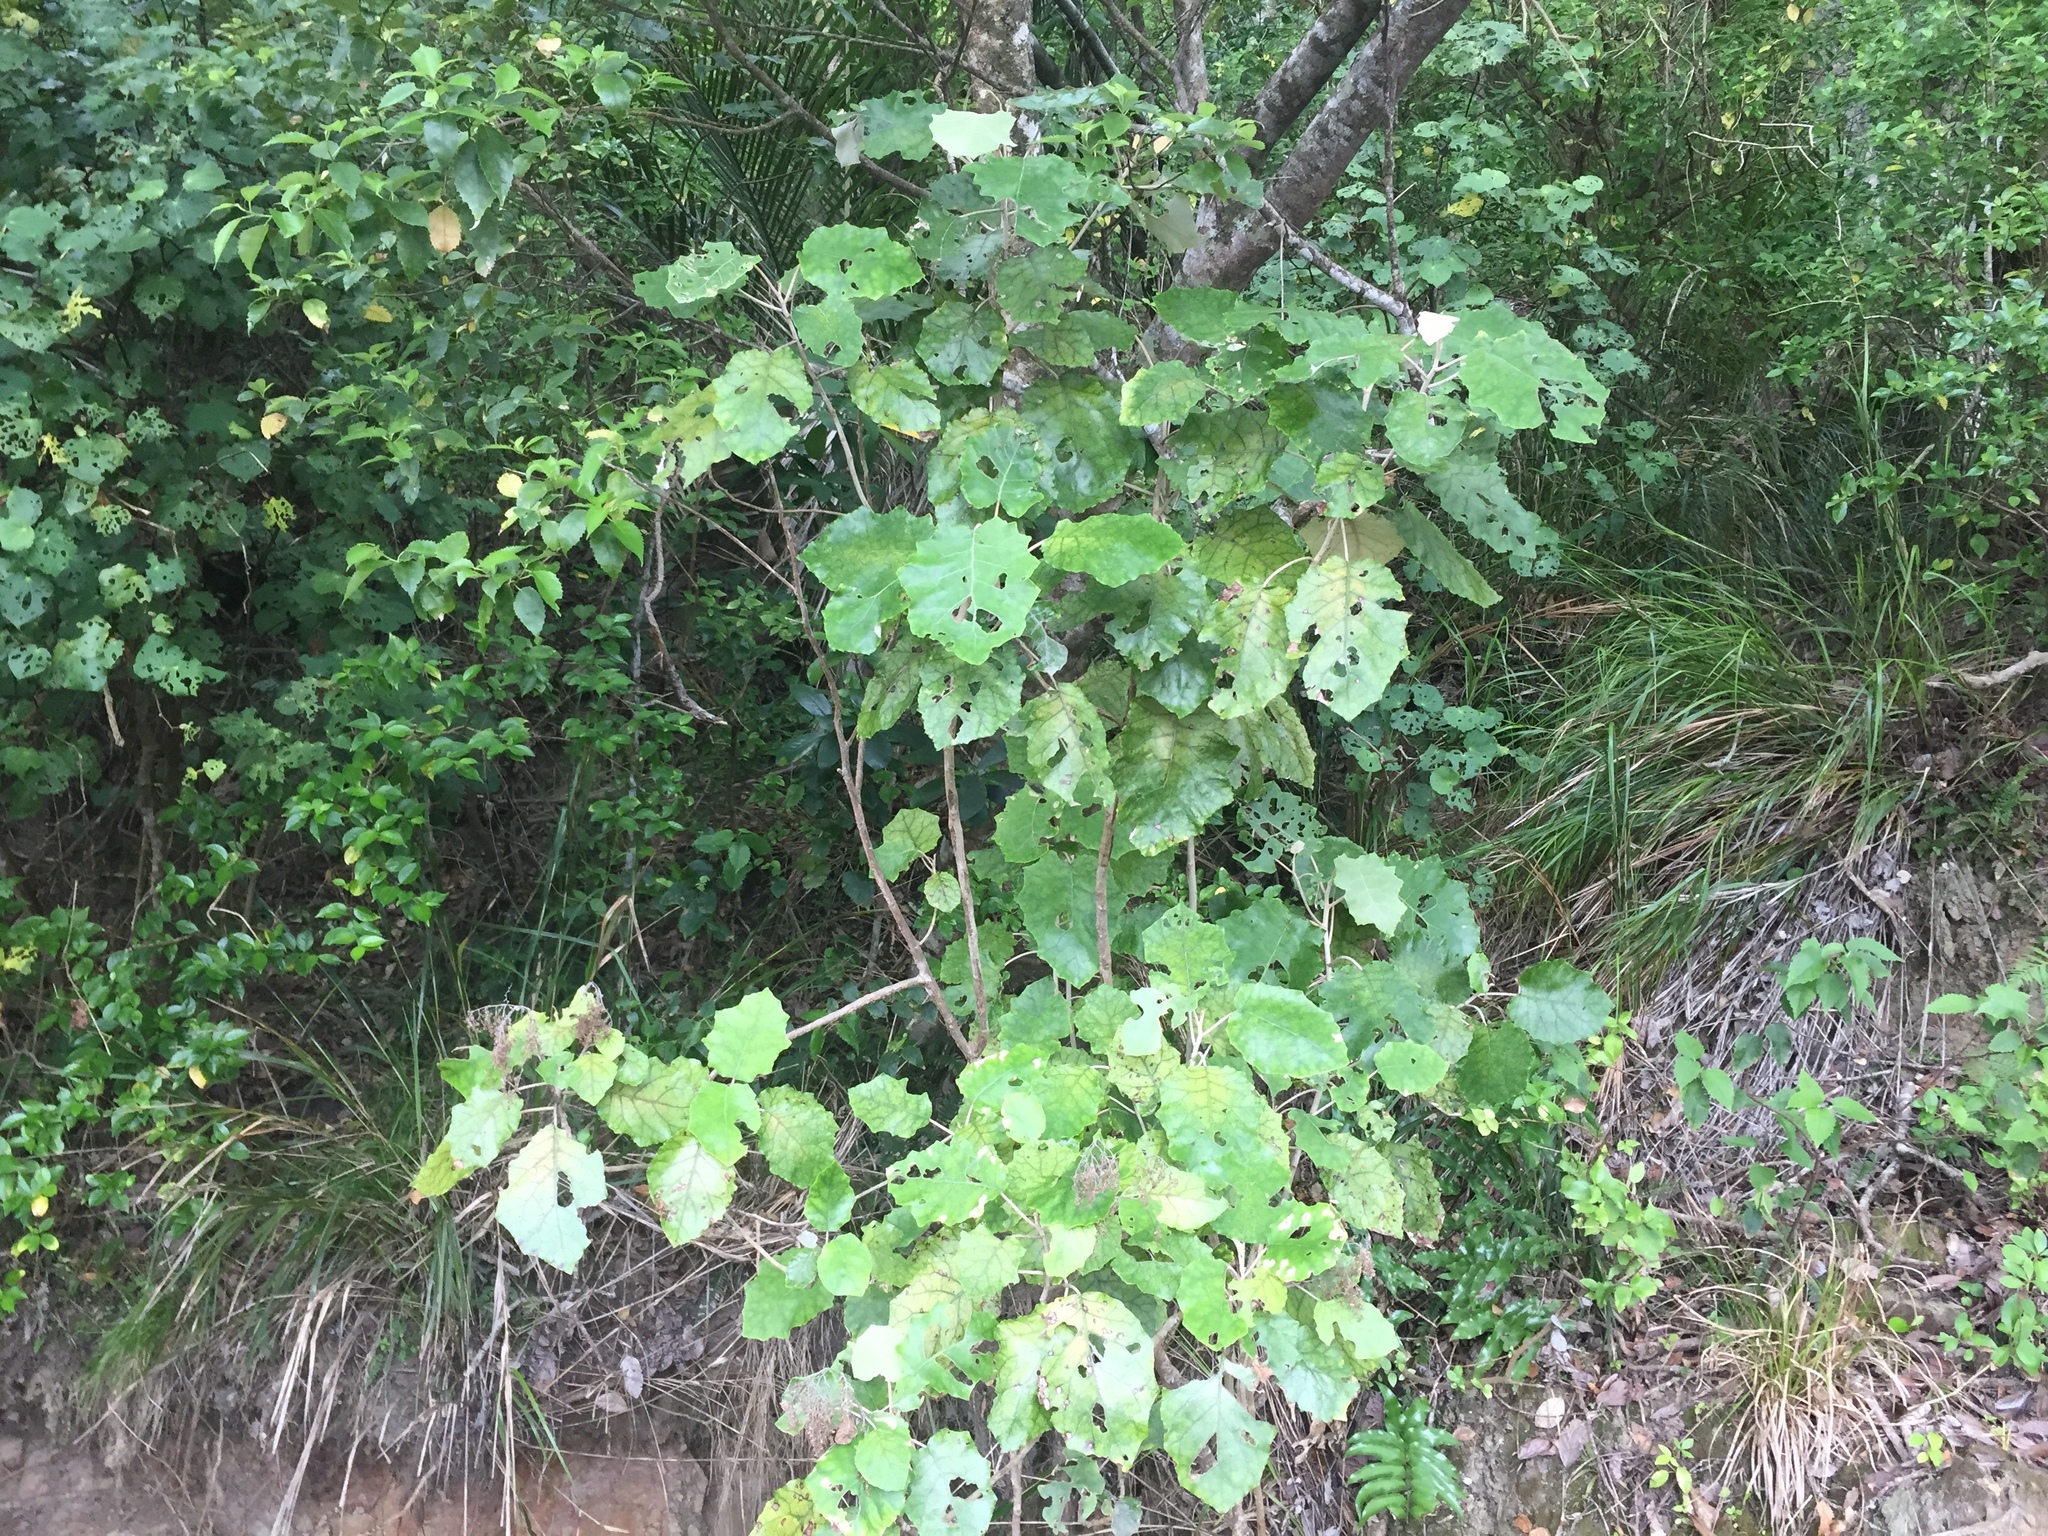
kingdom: Plantae
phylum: Tracheophyta
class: Magnoliopsida
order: Asterales
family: Asteraceae
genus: Brachyglottis
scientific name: Brachyglottis repanda
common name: Hedge ragwort
